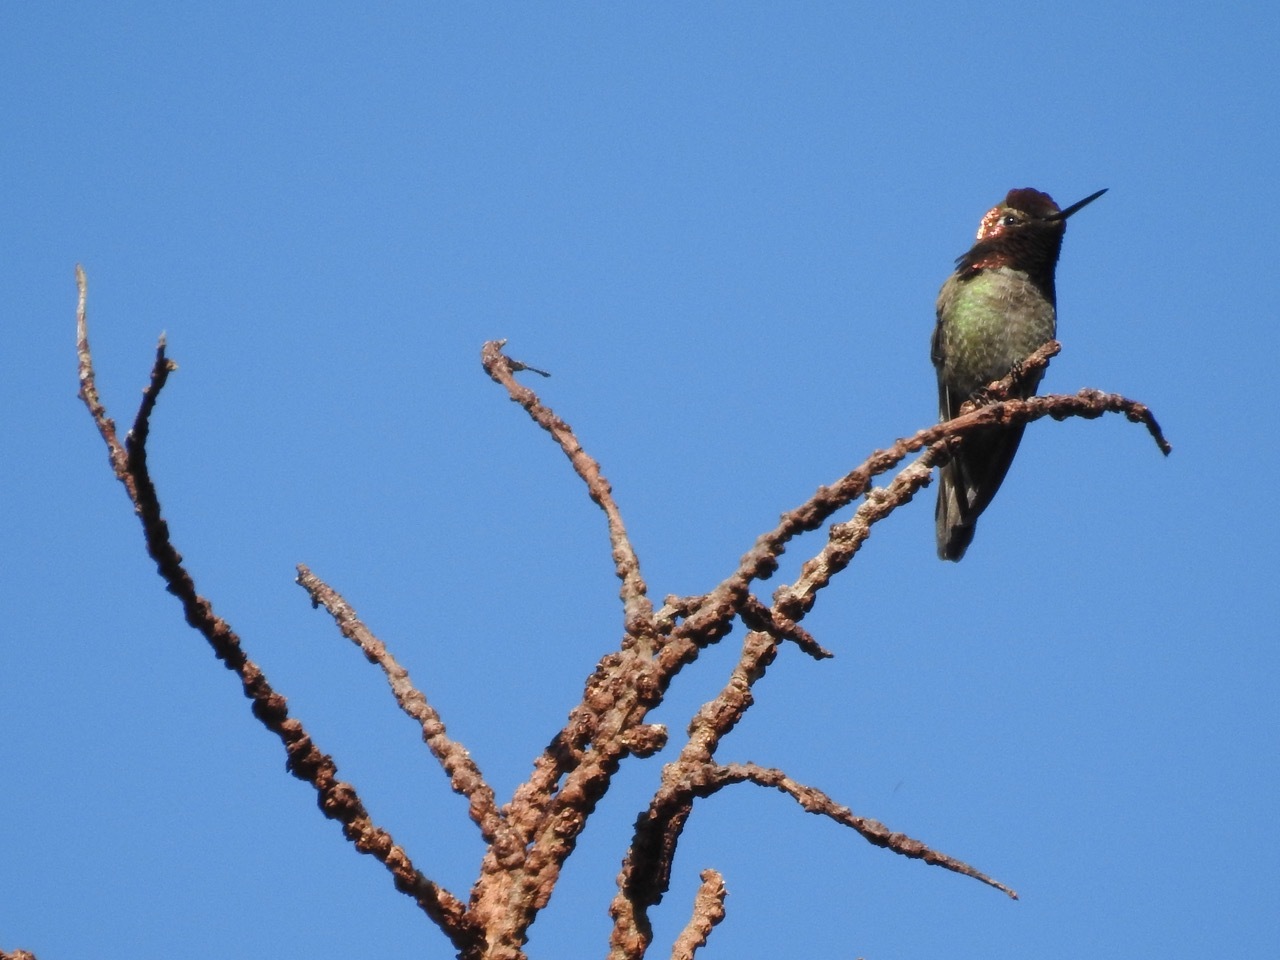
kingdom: Animalia
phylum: Chordata
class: Aves
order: Apodiformes
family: Trochilidae
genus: Calypte
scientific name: Calypte anna
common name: Anna's hummingbird
